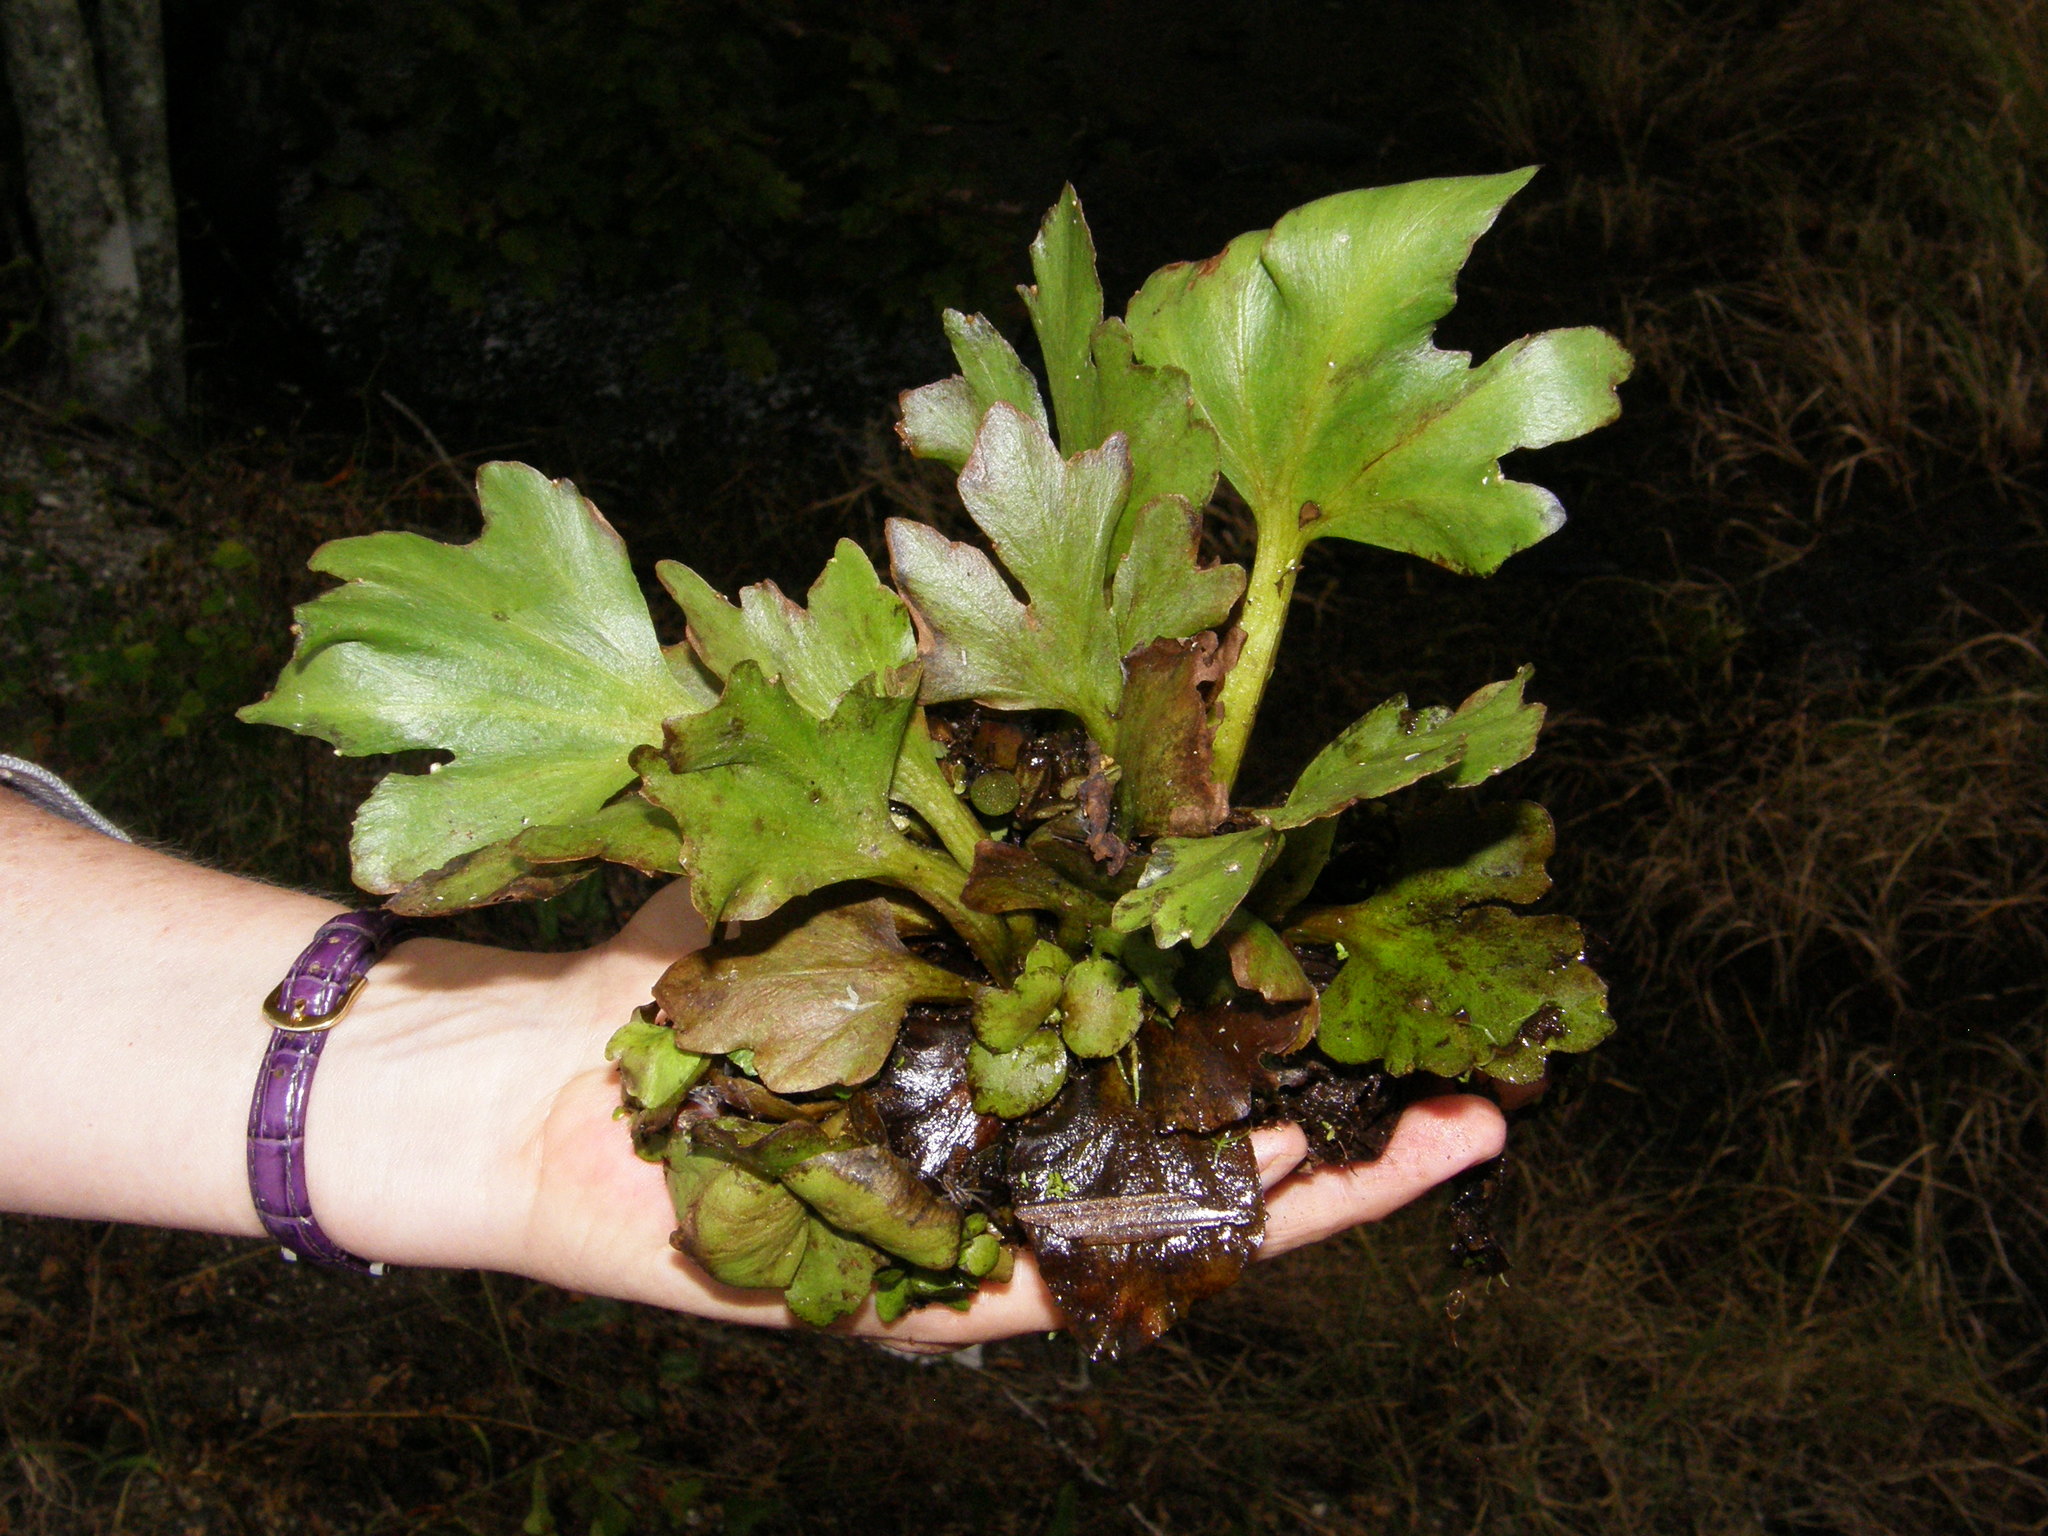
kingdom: Plantae
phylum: Tracheophyta
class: Polypodiopsida
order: Polypodiales
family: Pteridaceae
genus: Ceratopteris
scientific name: Ceratopteris pteridoides
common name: Floating fern
